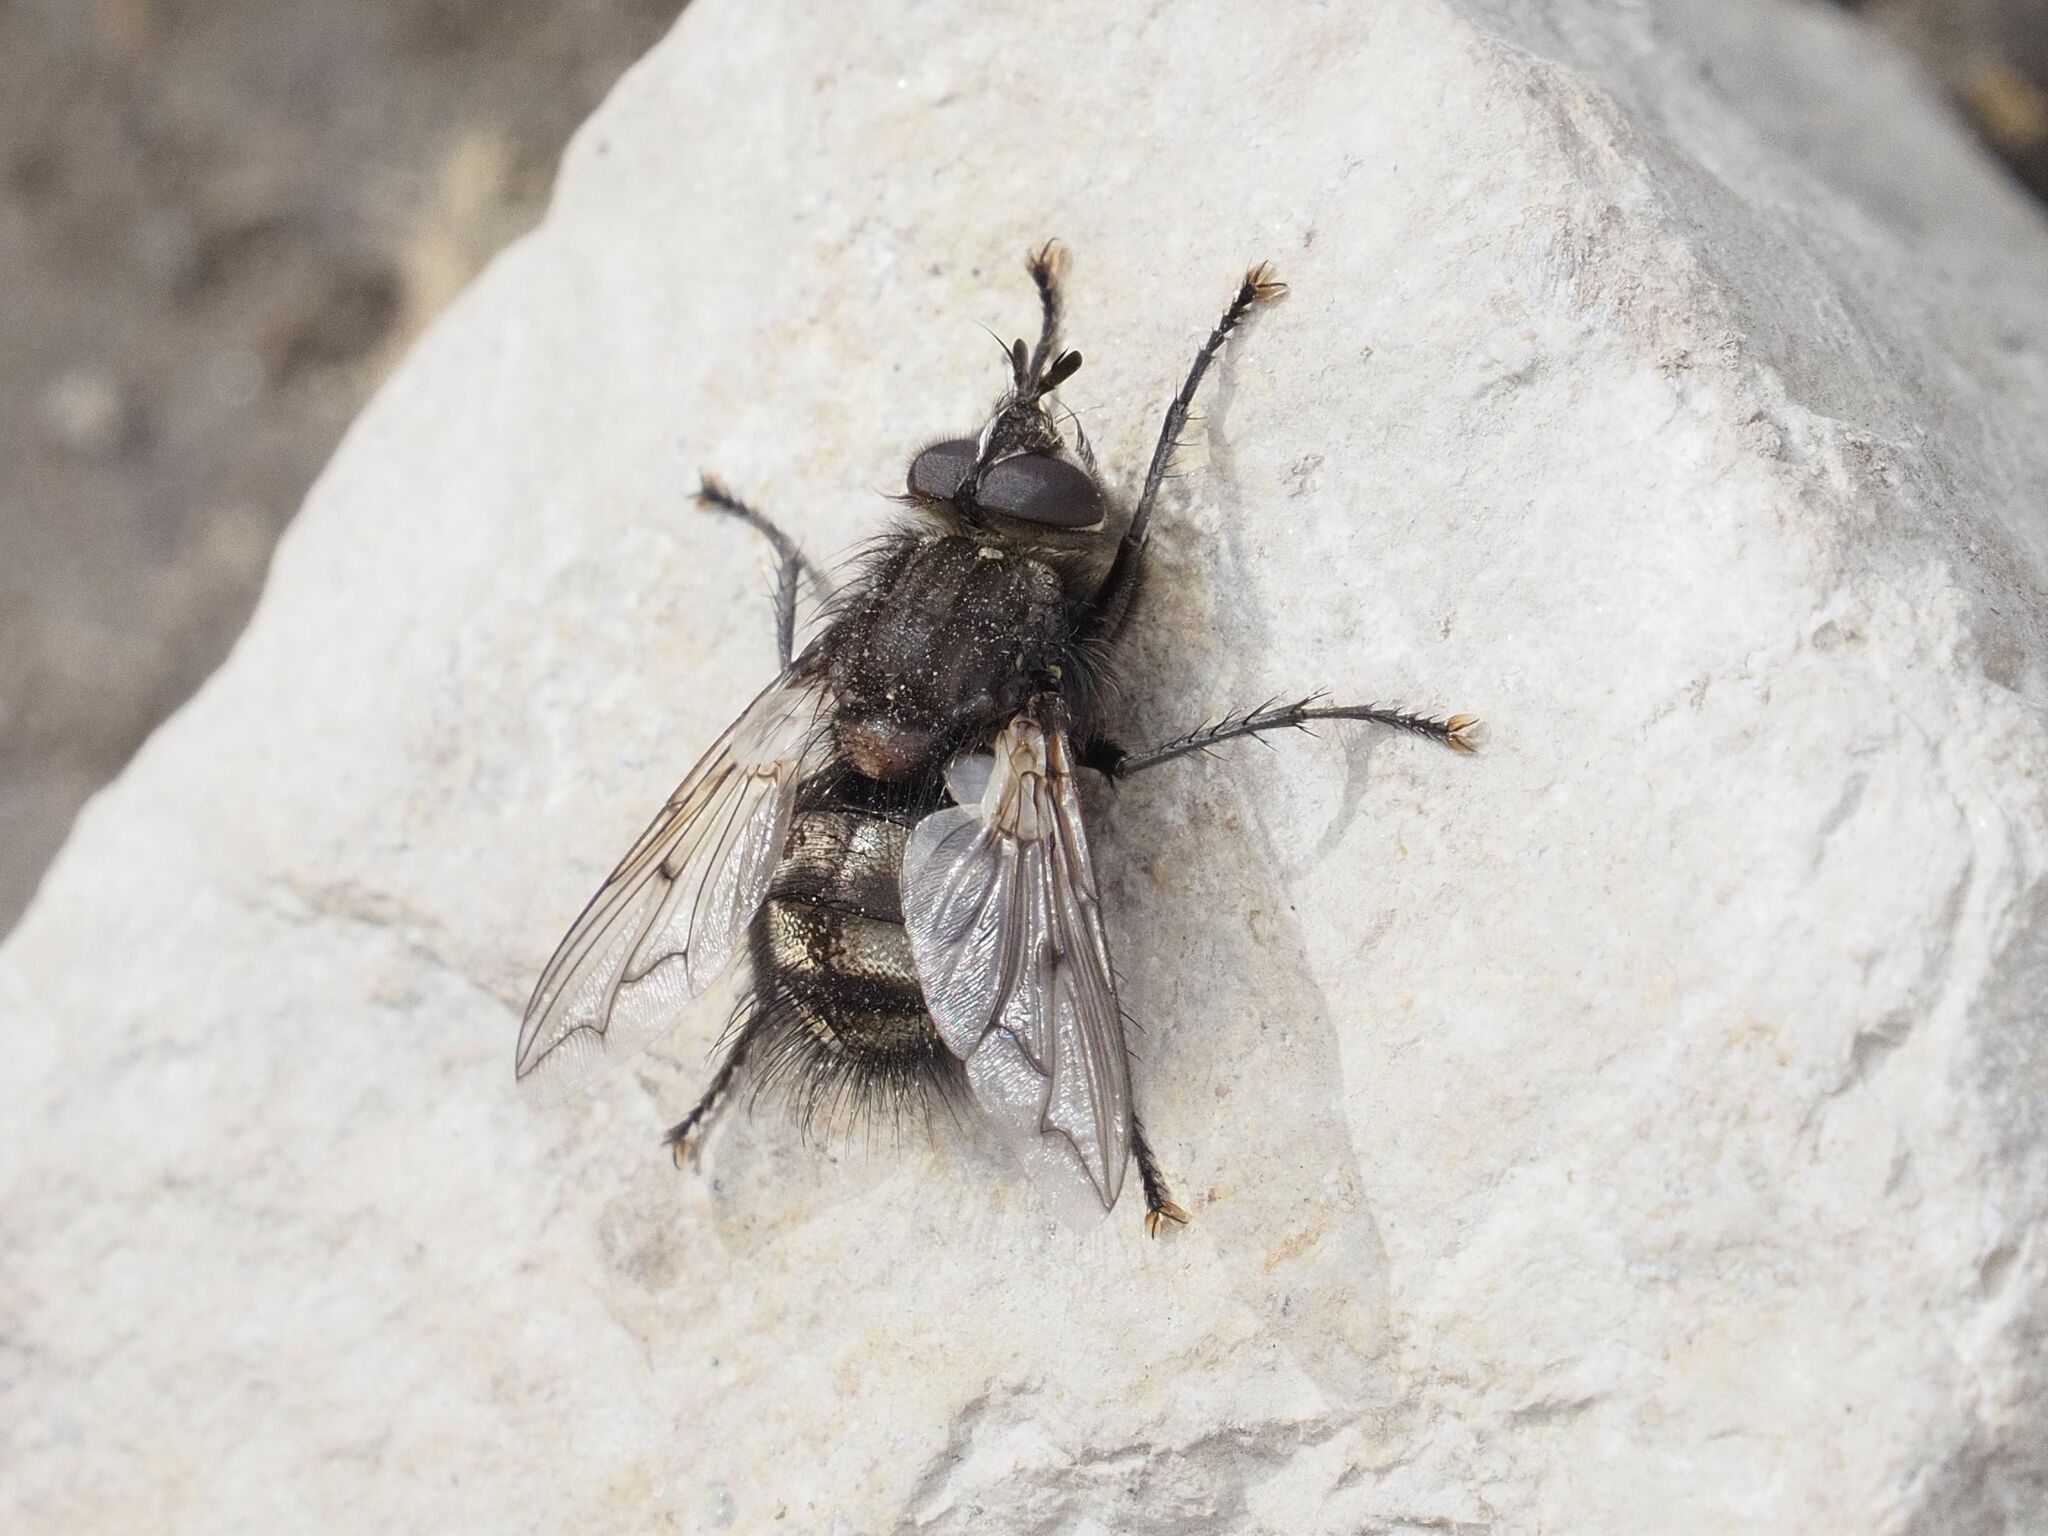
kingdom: Animalia
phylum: Arthropoda
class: Insecta
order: Diptera
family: Tachinidae
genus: Panzeria
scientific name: Panzeria puparum
